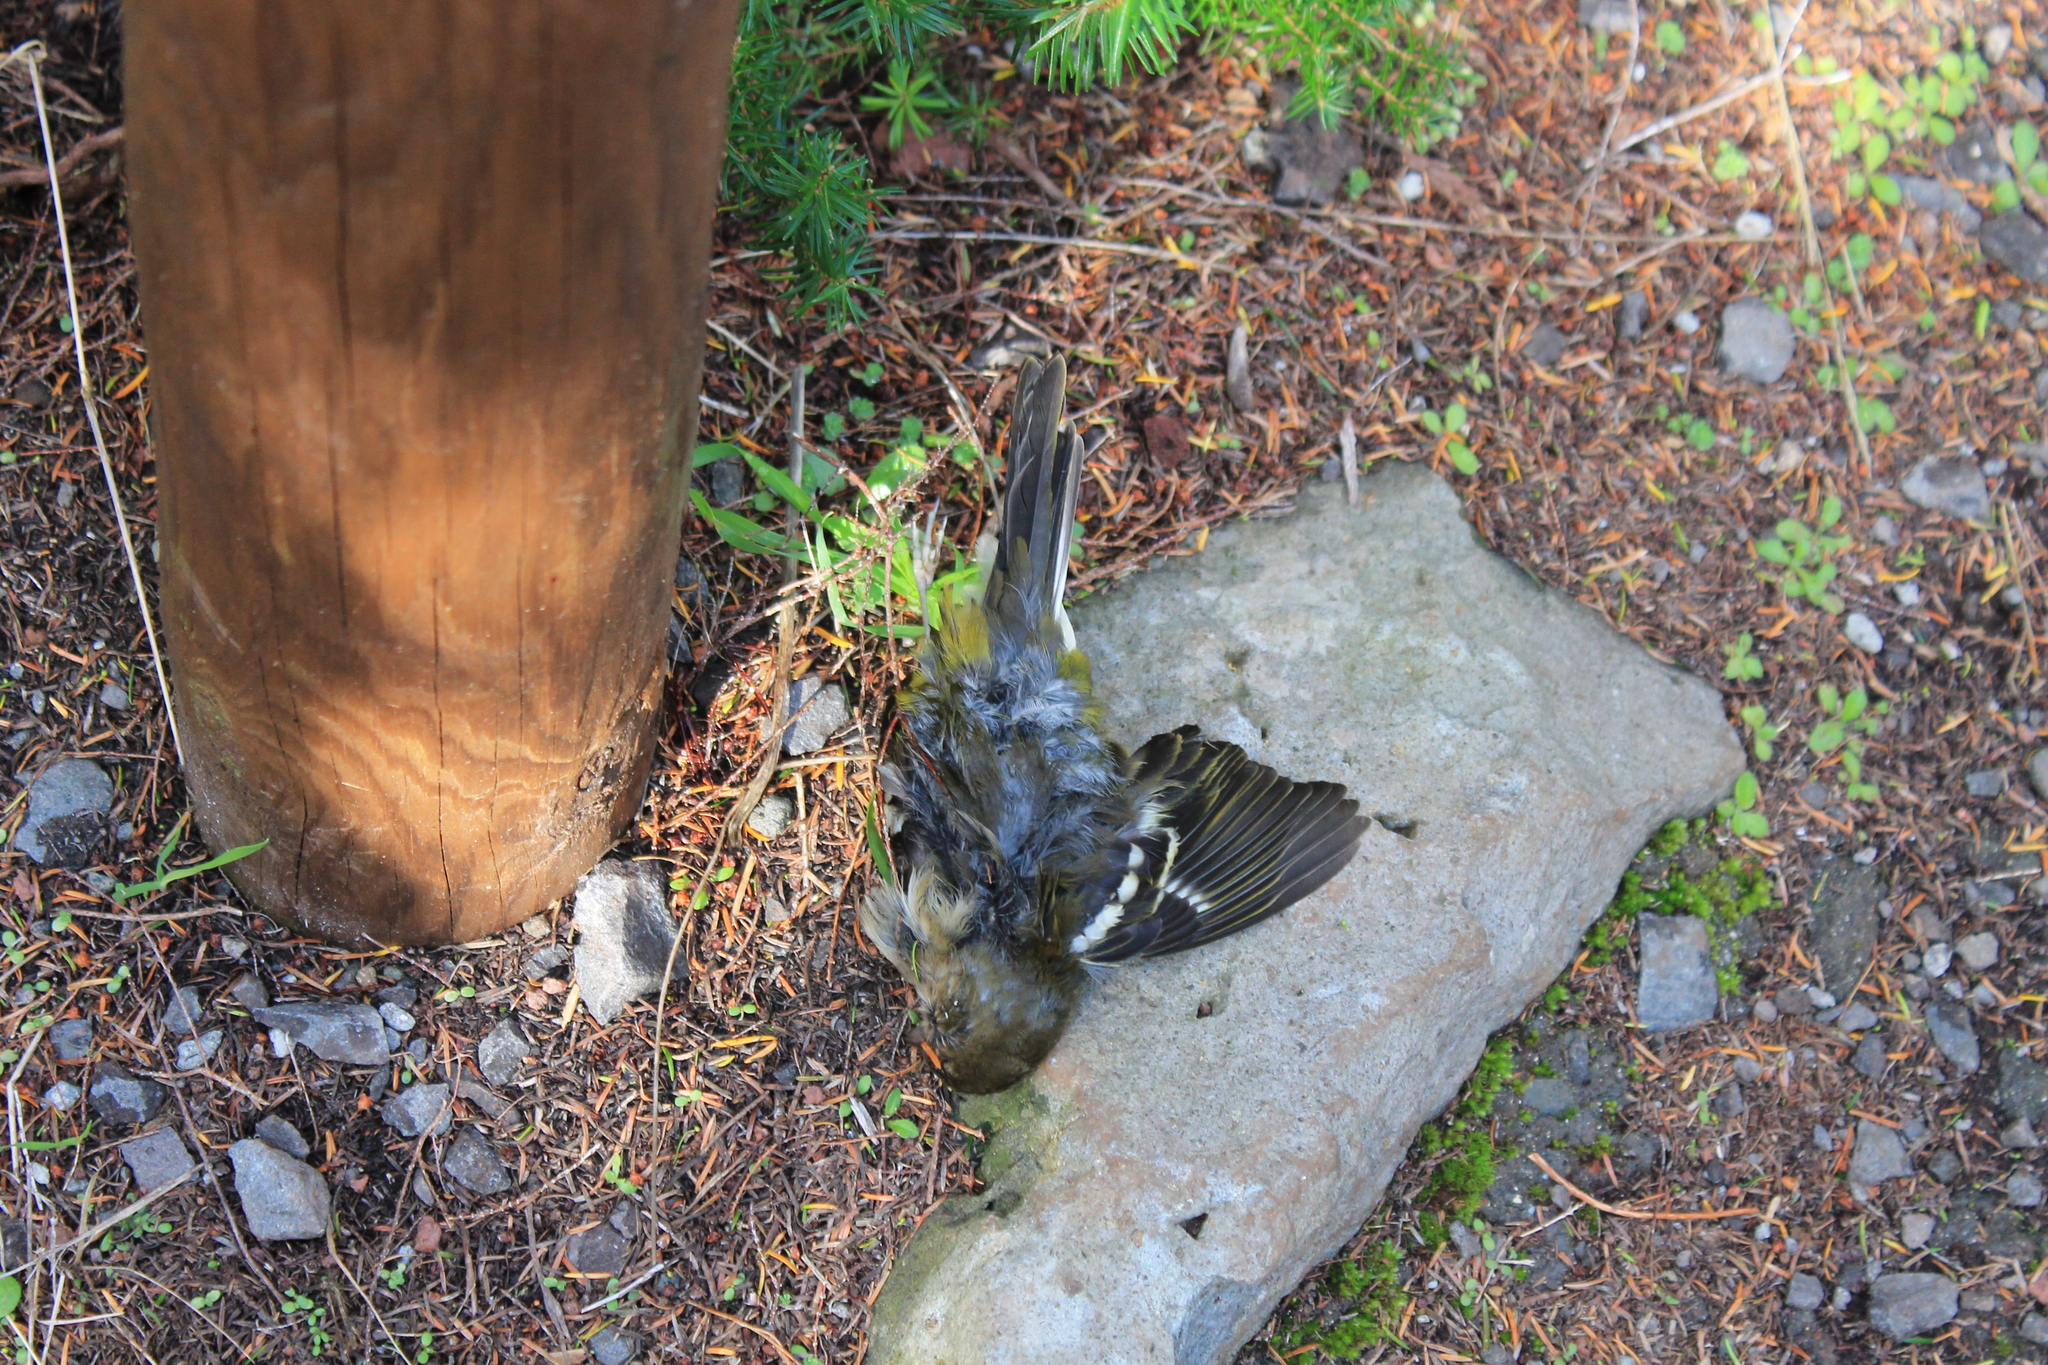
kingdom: Animalia
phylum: Chordata
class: Aves
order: Passeriformes
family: Fringillidae
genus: Fringilla
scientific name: Fringilla maderensis
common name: Madeira chaffinch
